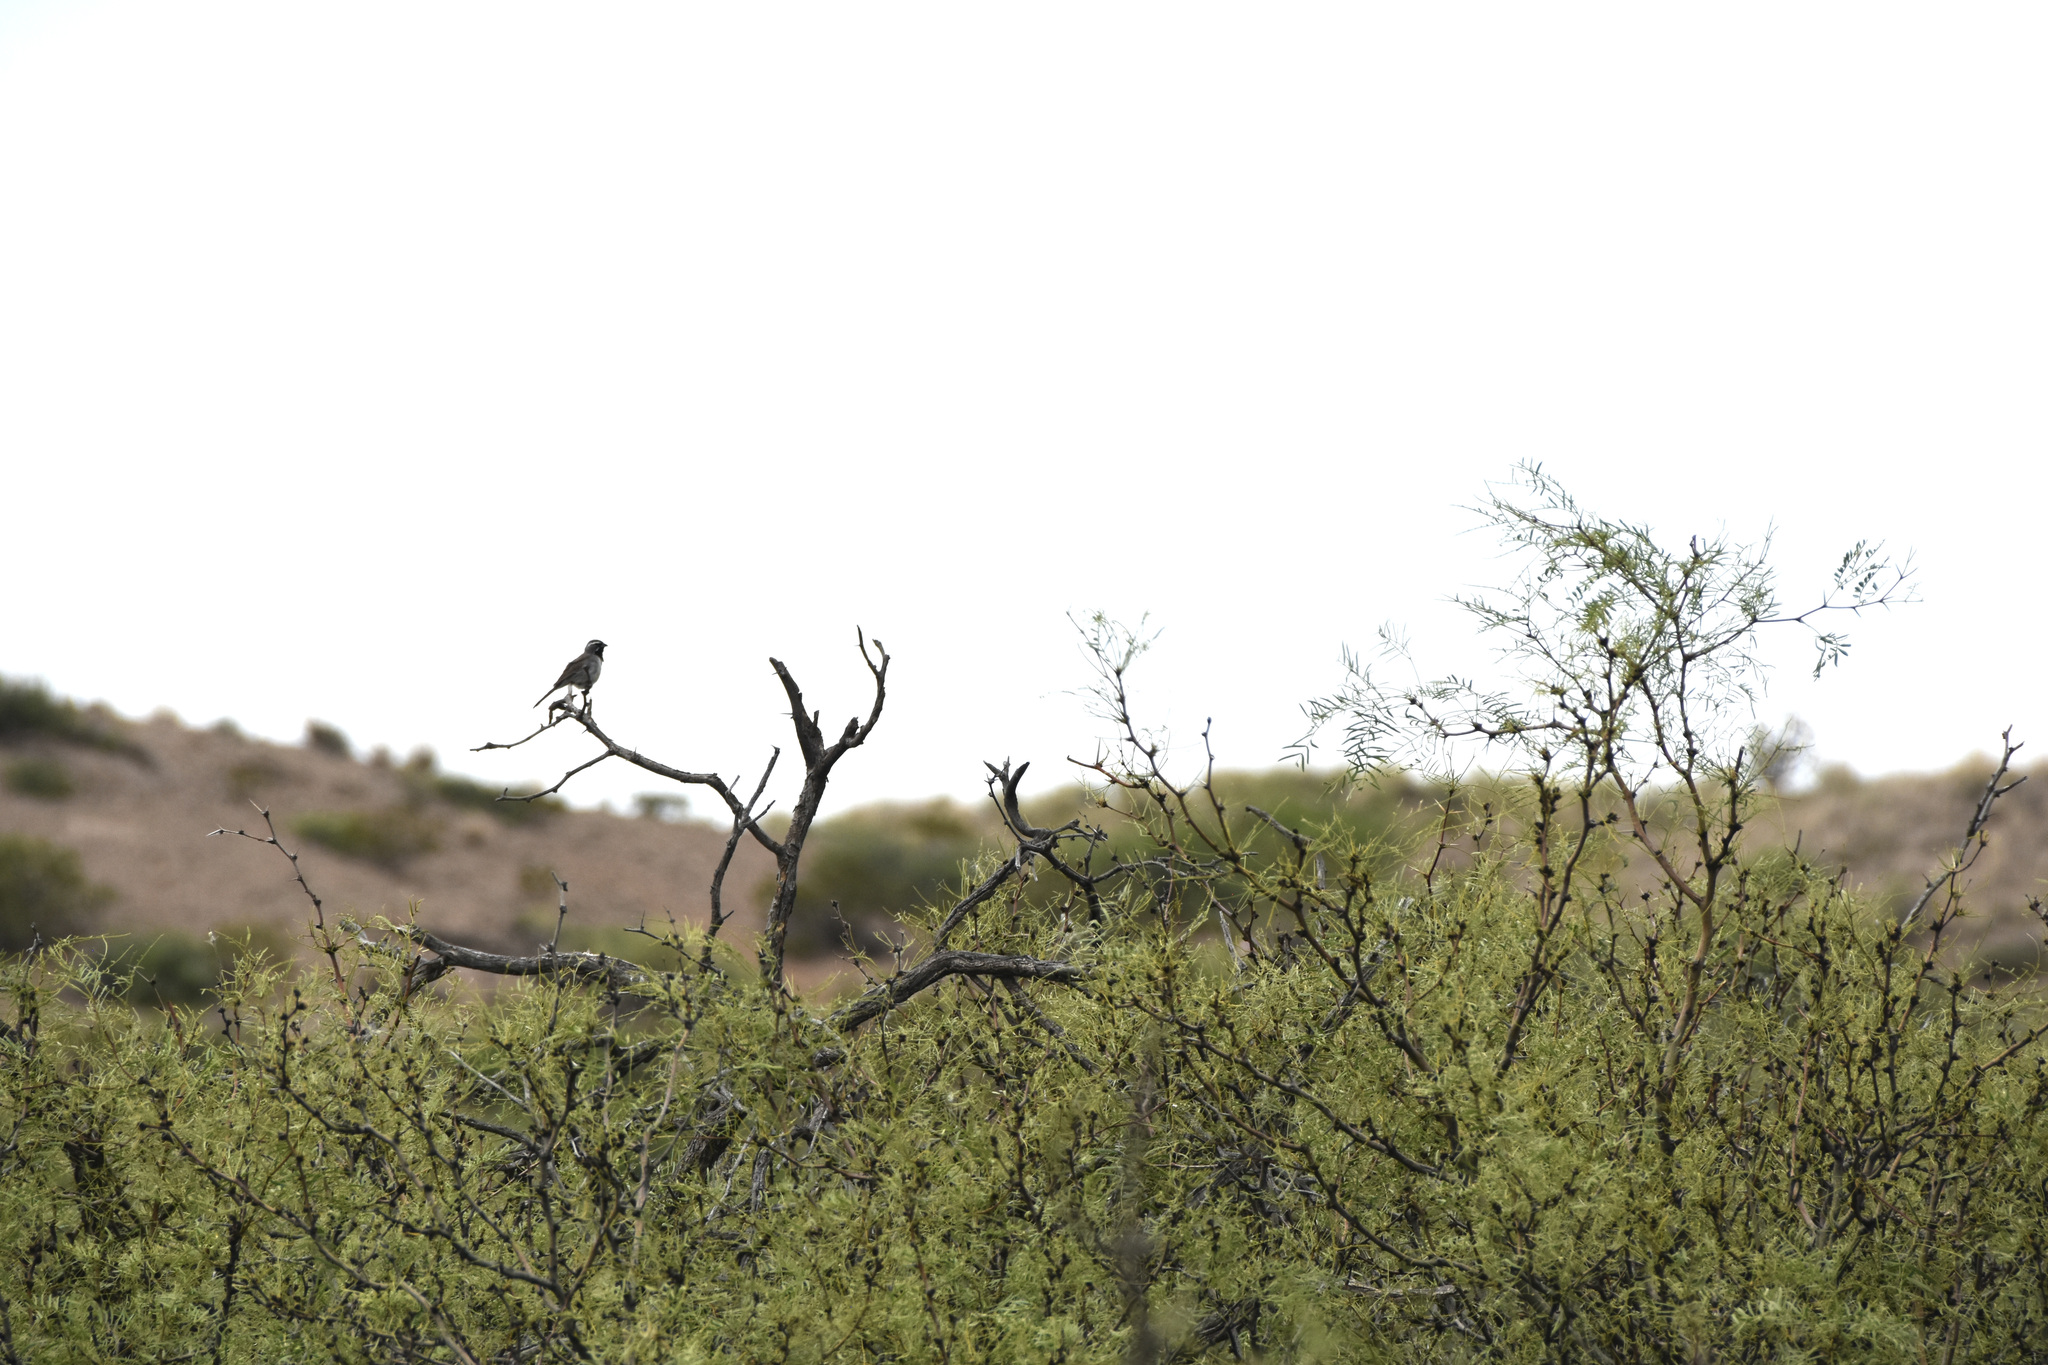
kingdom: Animalia
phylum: Chordata
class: Aves
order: Passeriformes
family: Passerellidae
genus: Amphispiza
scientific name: Amphispiza bilineata
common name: Black-throated sparrow
